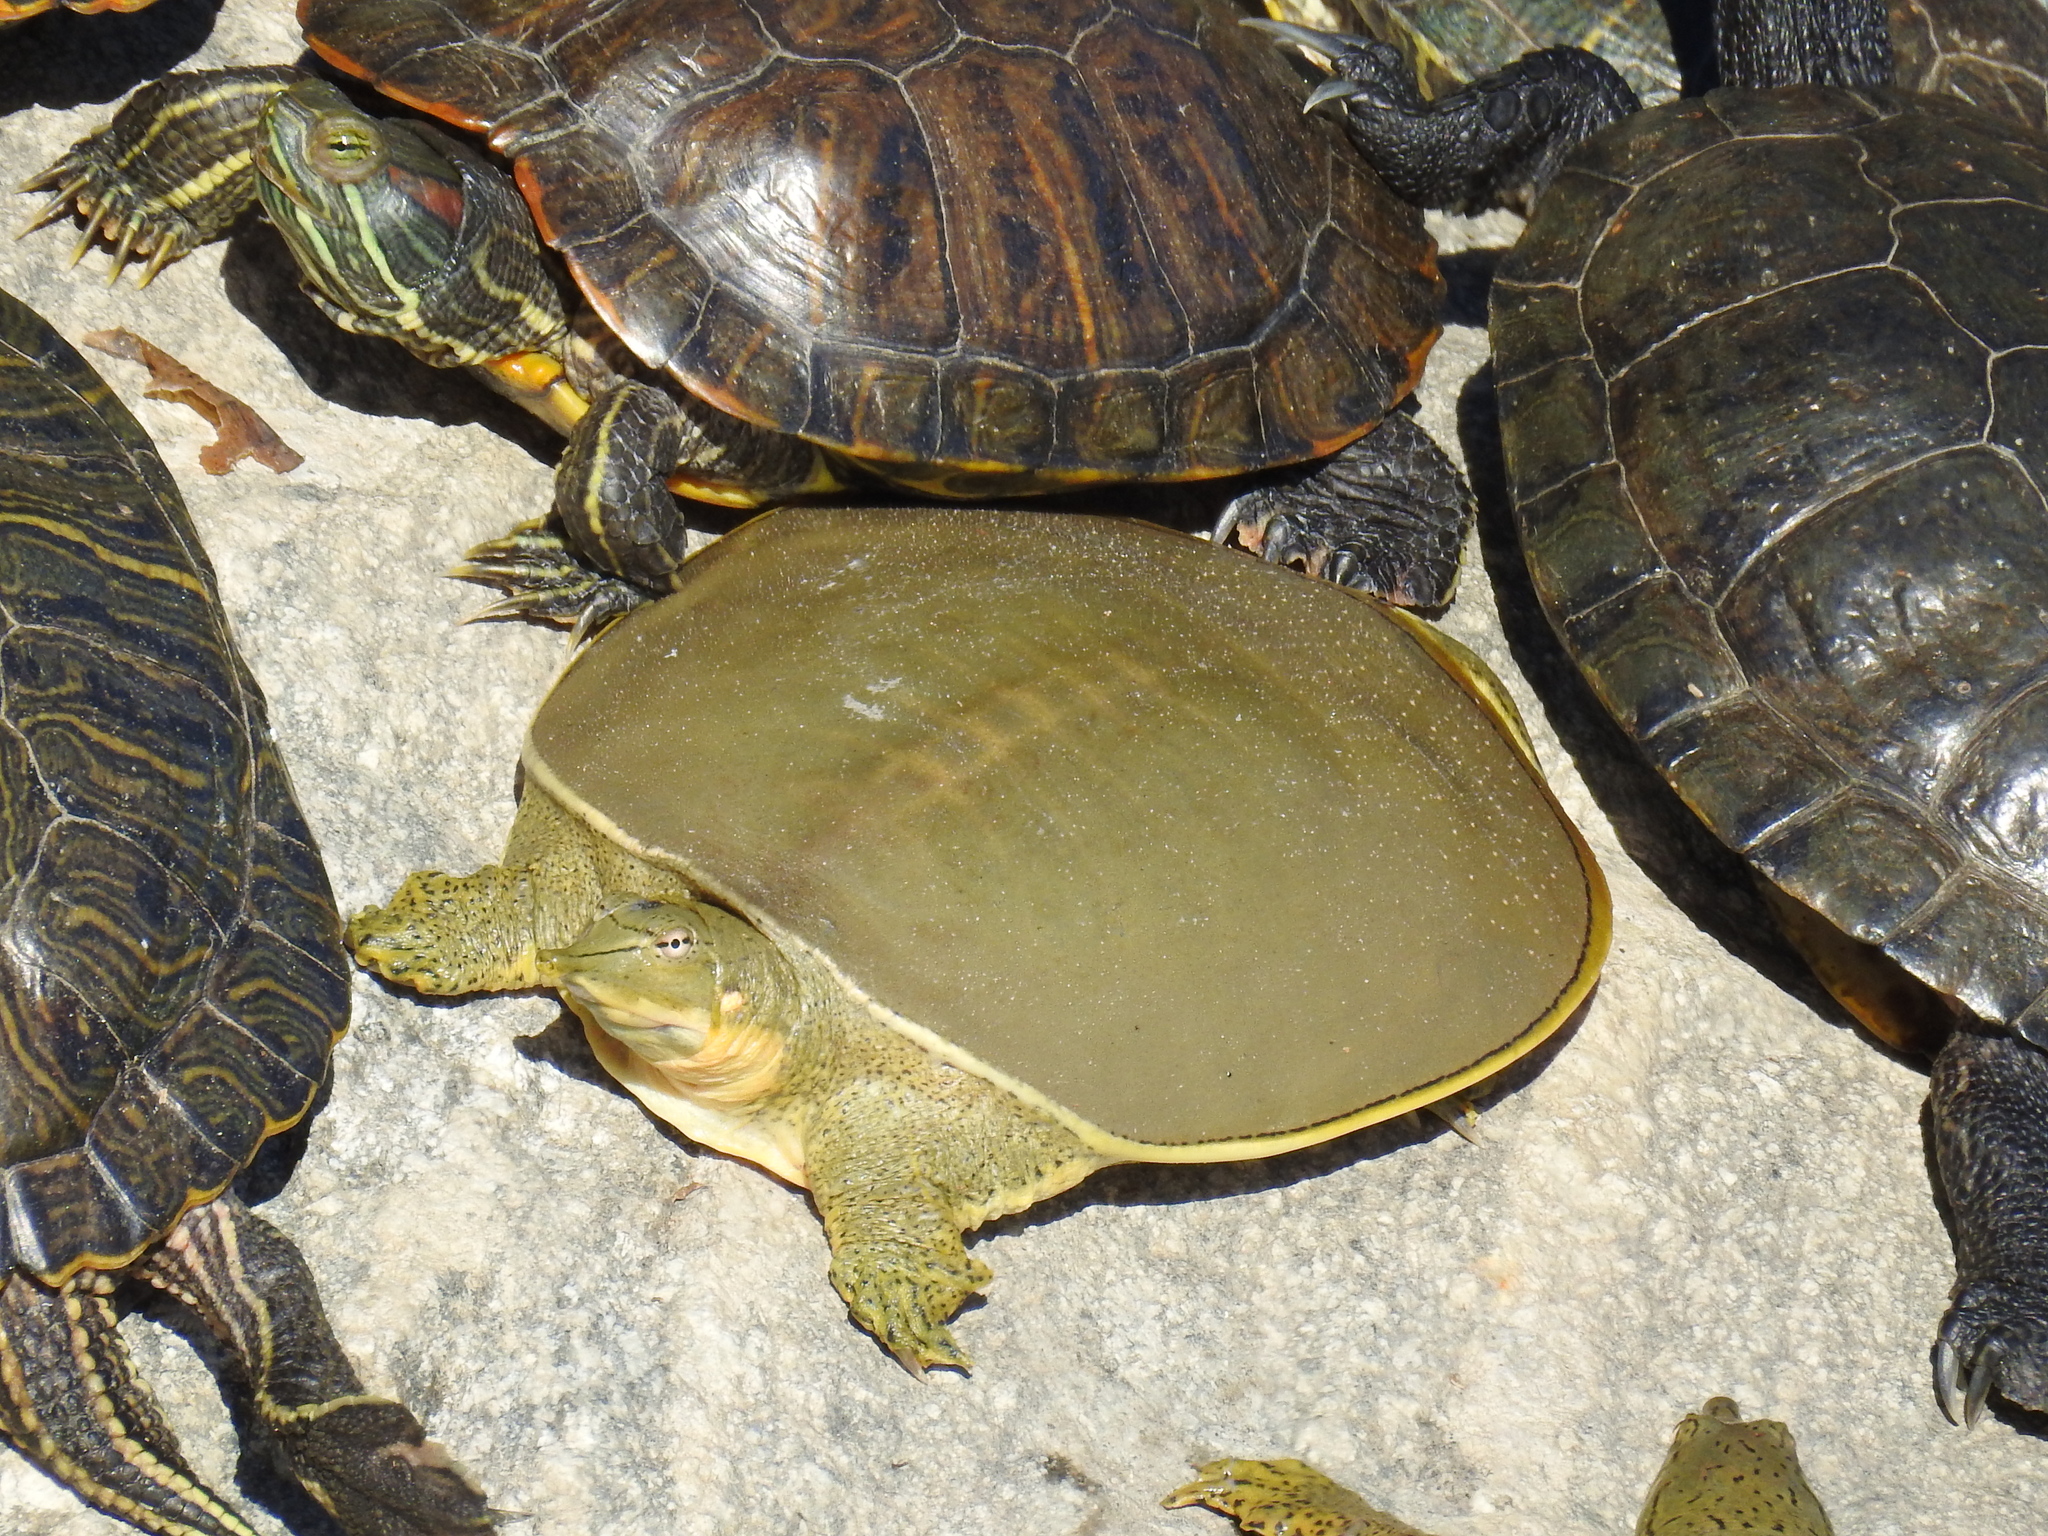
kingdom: Animalia
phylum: Chordata
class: Testudines
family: Trionychidae
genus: Apalone
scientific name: Apalone spinifera
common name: Spiny softshell turtle
